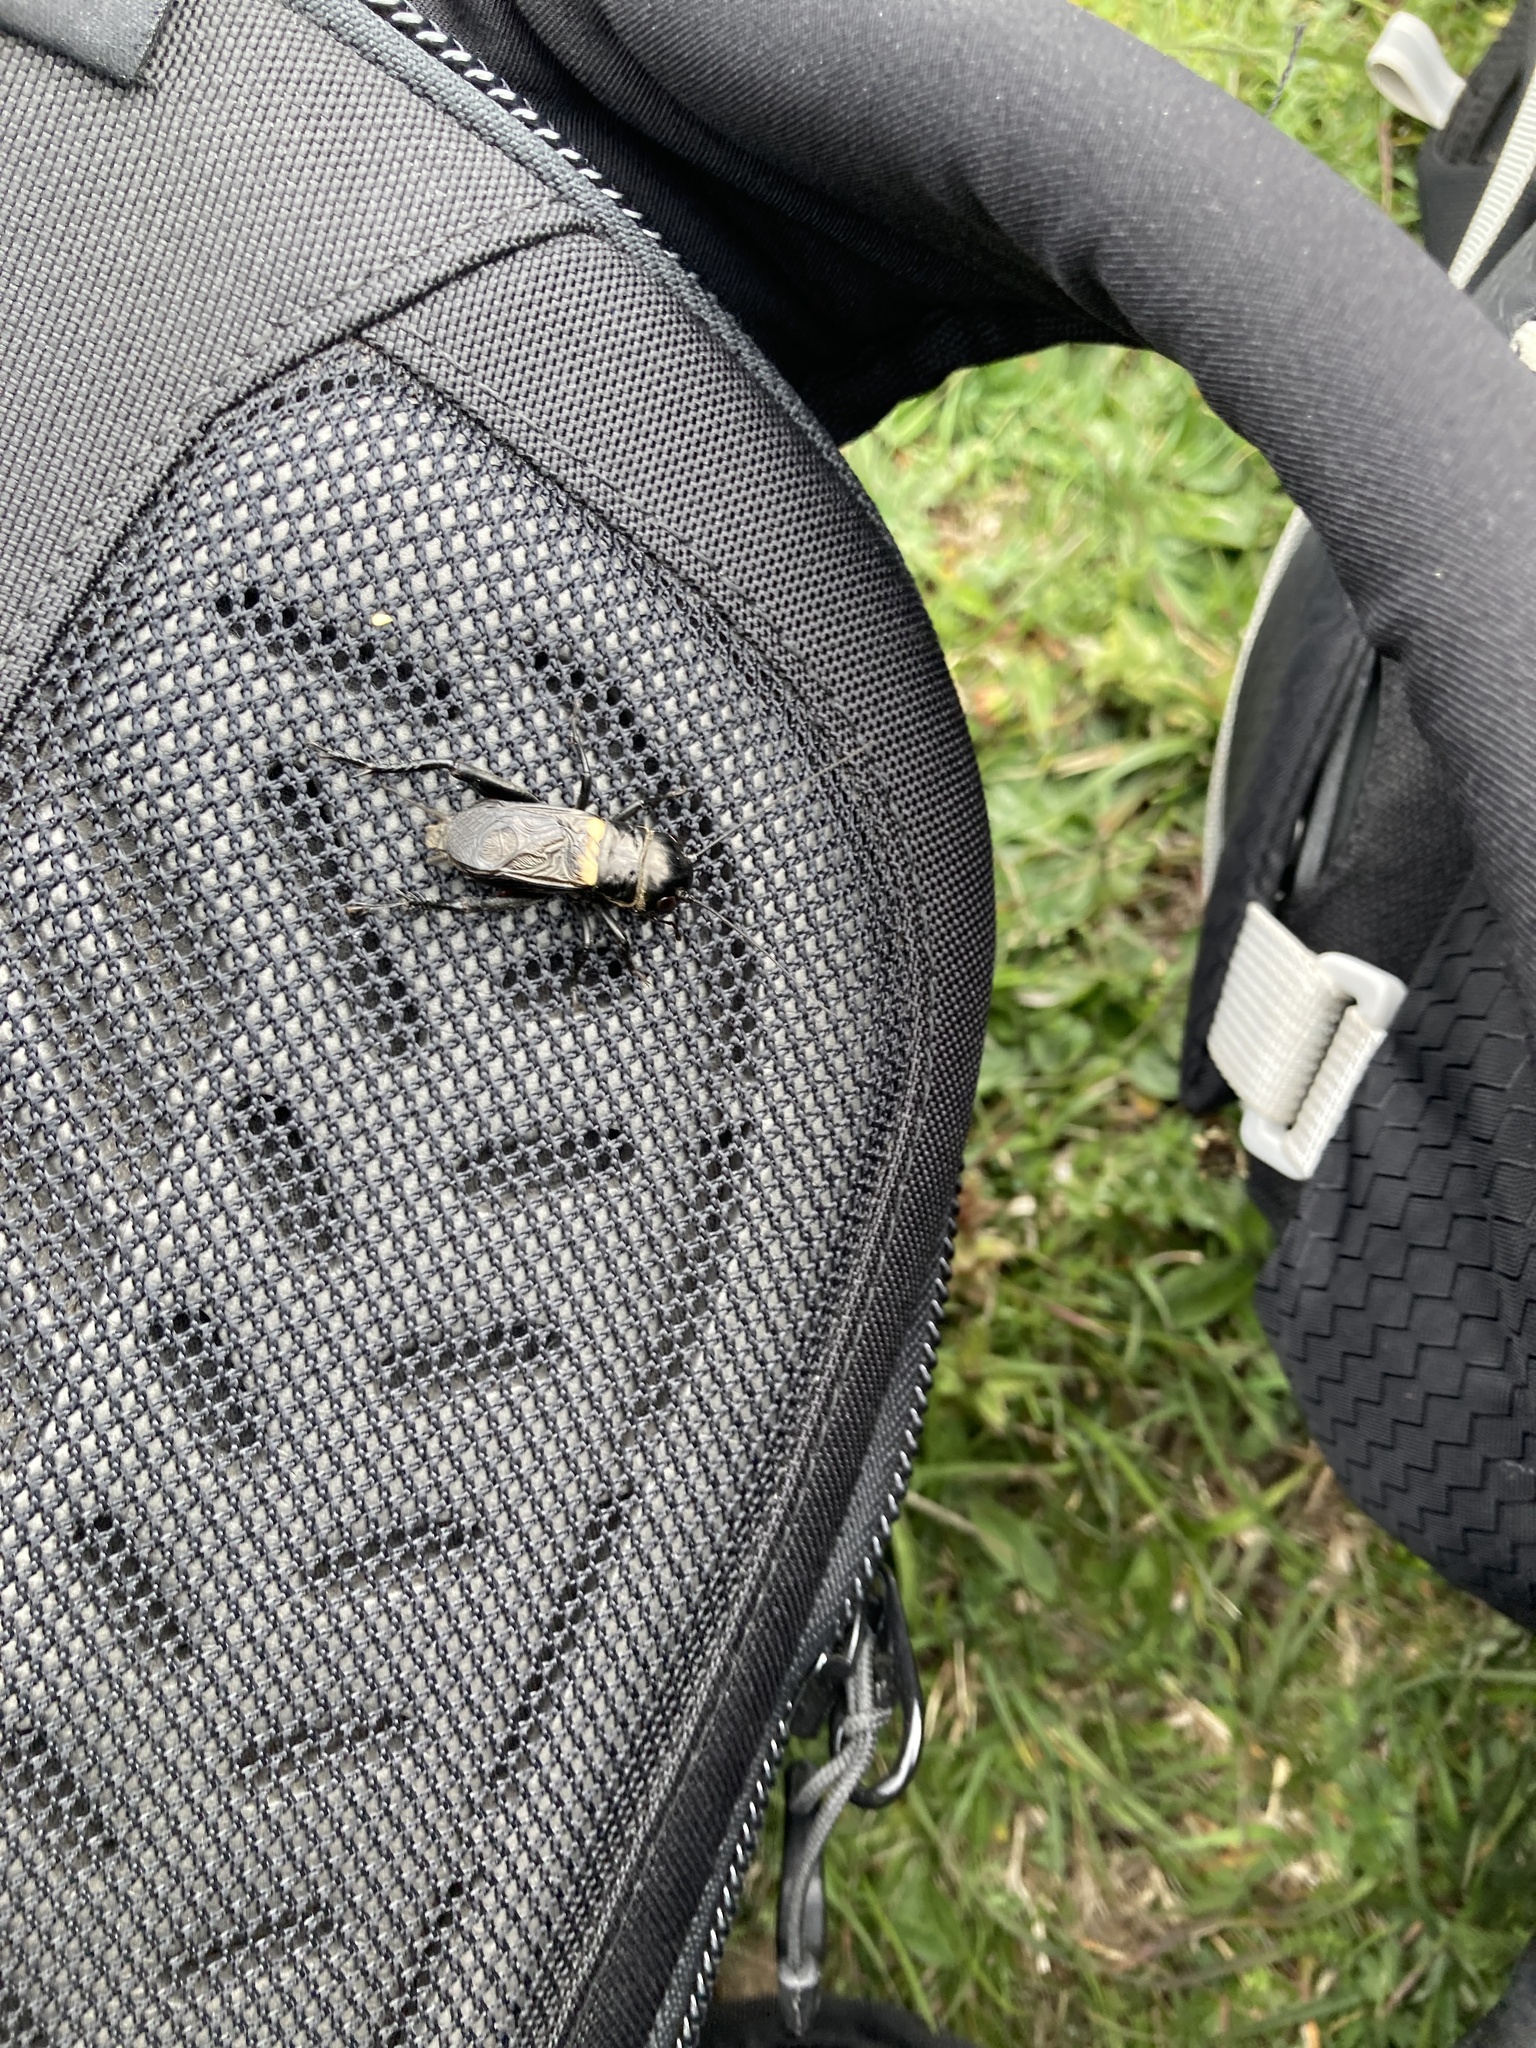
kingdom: Animalia
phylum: Arthropoda
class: Insecta
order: Orthoptera
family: Gryllidae
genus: Gryllus
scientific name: Gryllus campestris
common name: Field cricket
